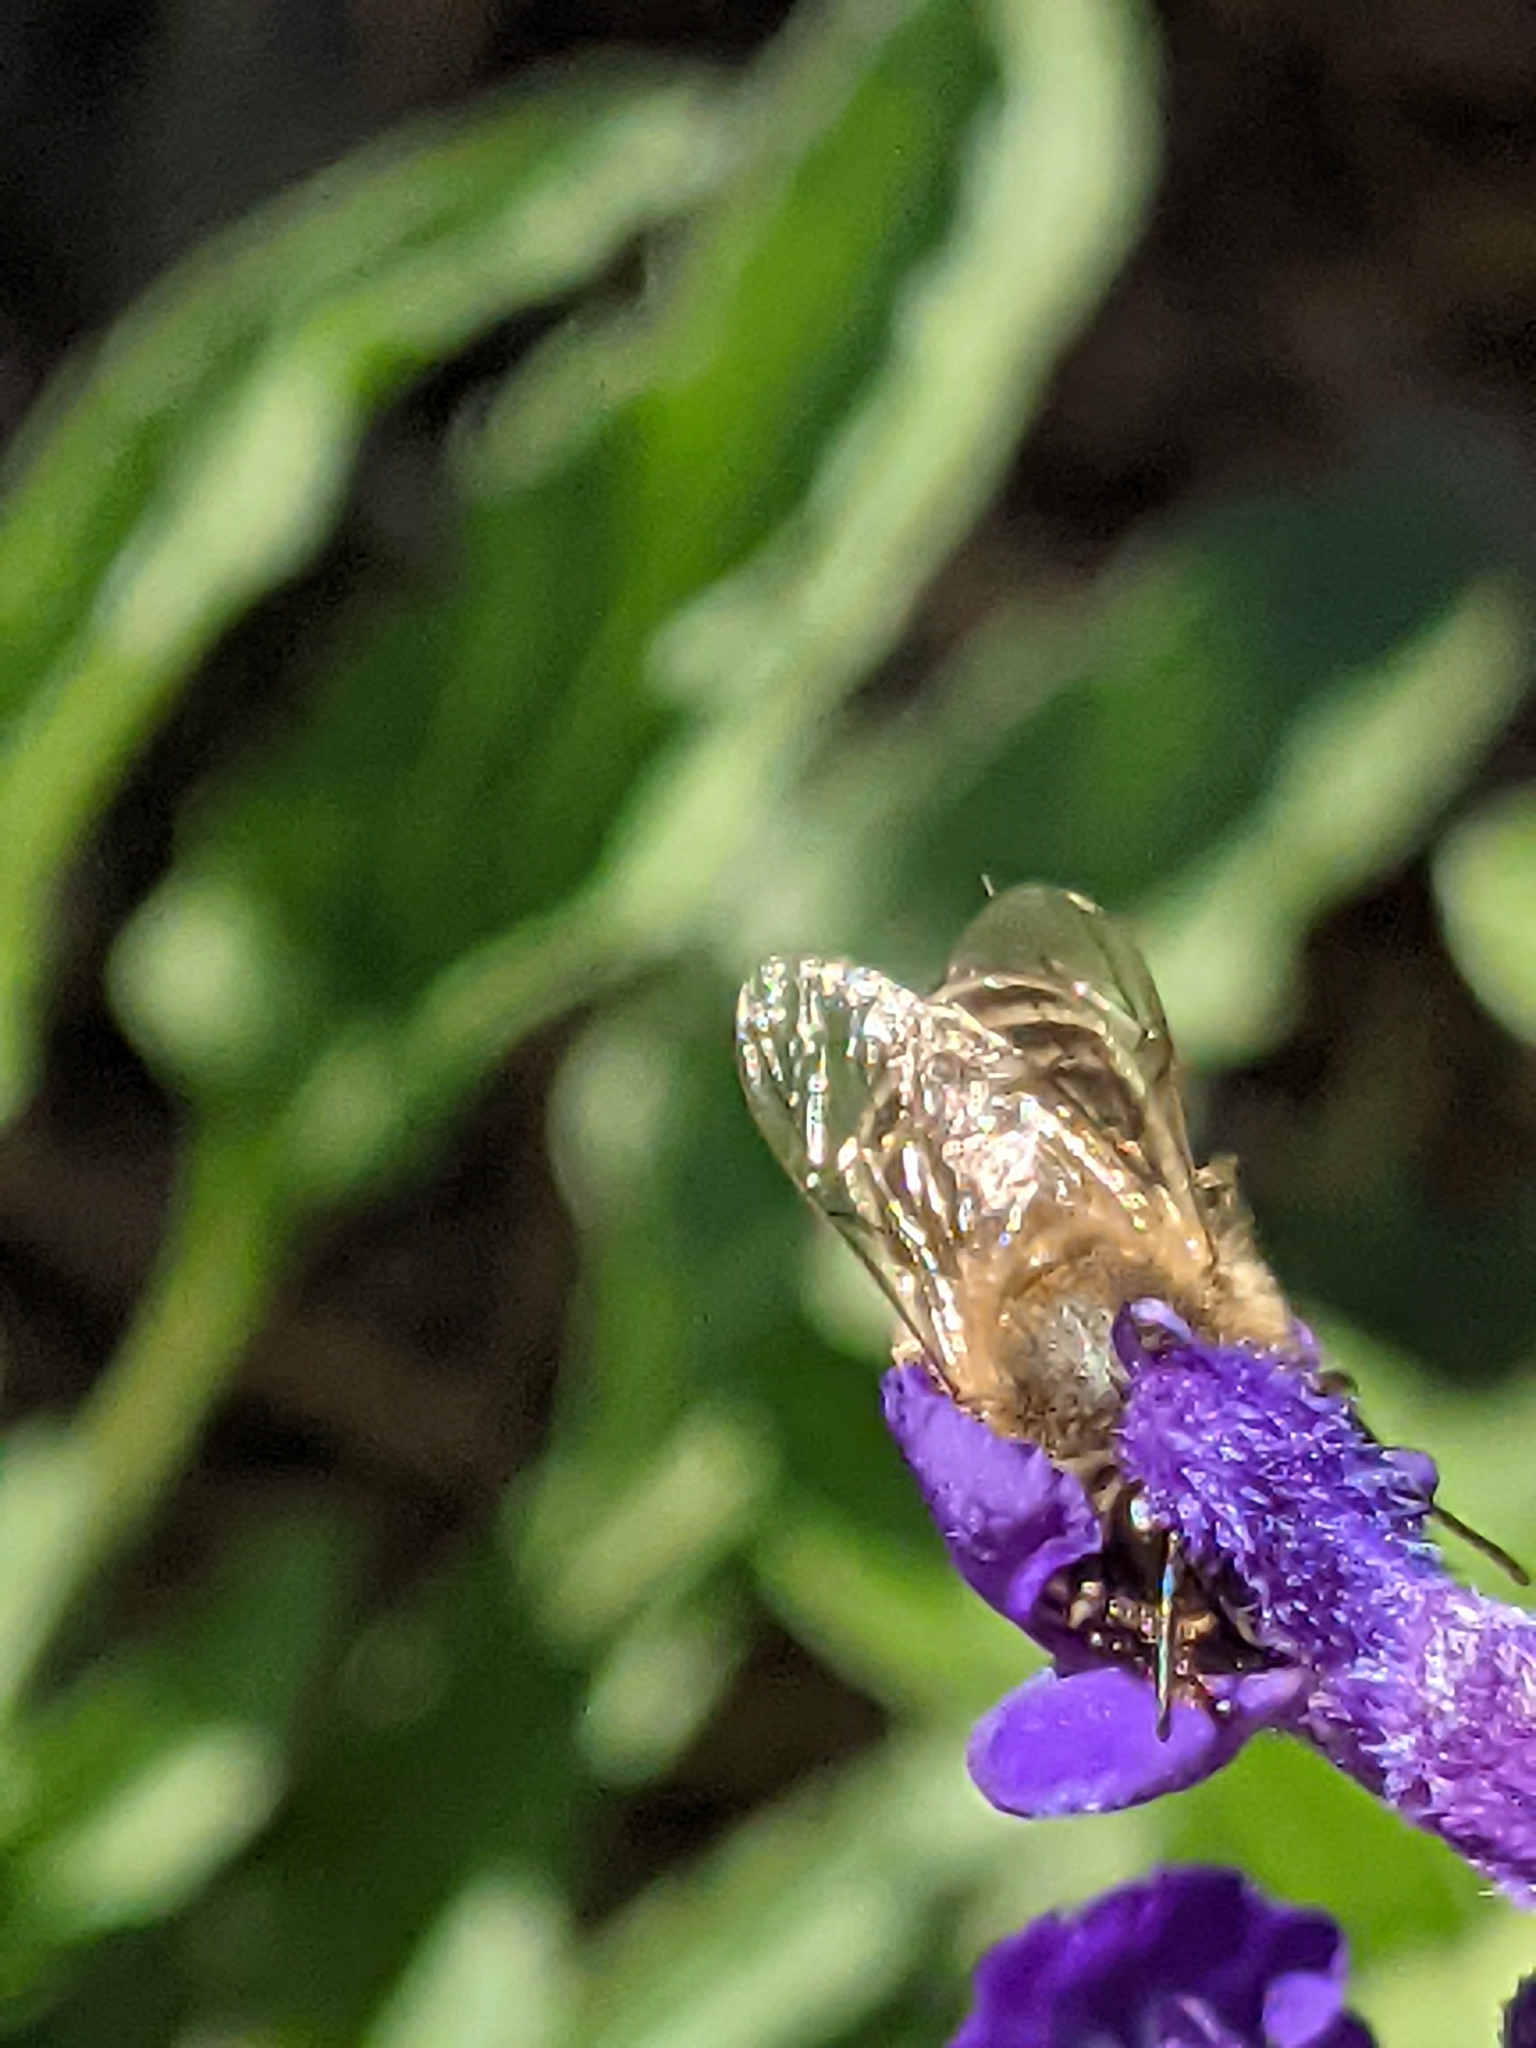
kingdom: Animalia
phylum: Arthropoda
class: Insecta
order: Hymenoptera
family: Apidae
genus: Apis
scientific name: Apis mellifera
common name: Honey bee
